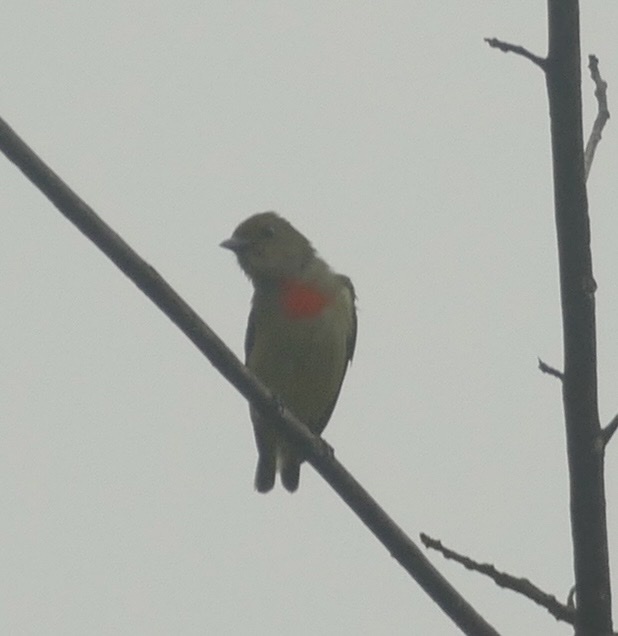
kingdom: Animalia
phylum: Chordata
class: Aves
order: Passeriformes
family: Dicaeidae
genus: Dicaeum
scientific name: Dicaeum pectorale
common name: Olive-crowned flowerpecker
